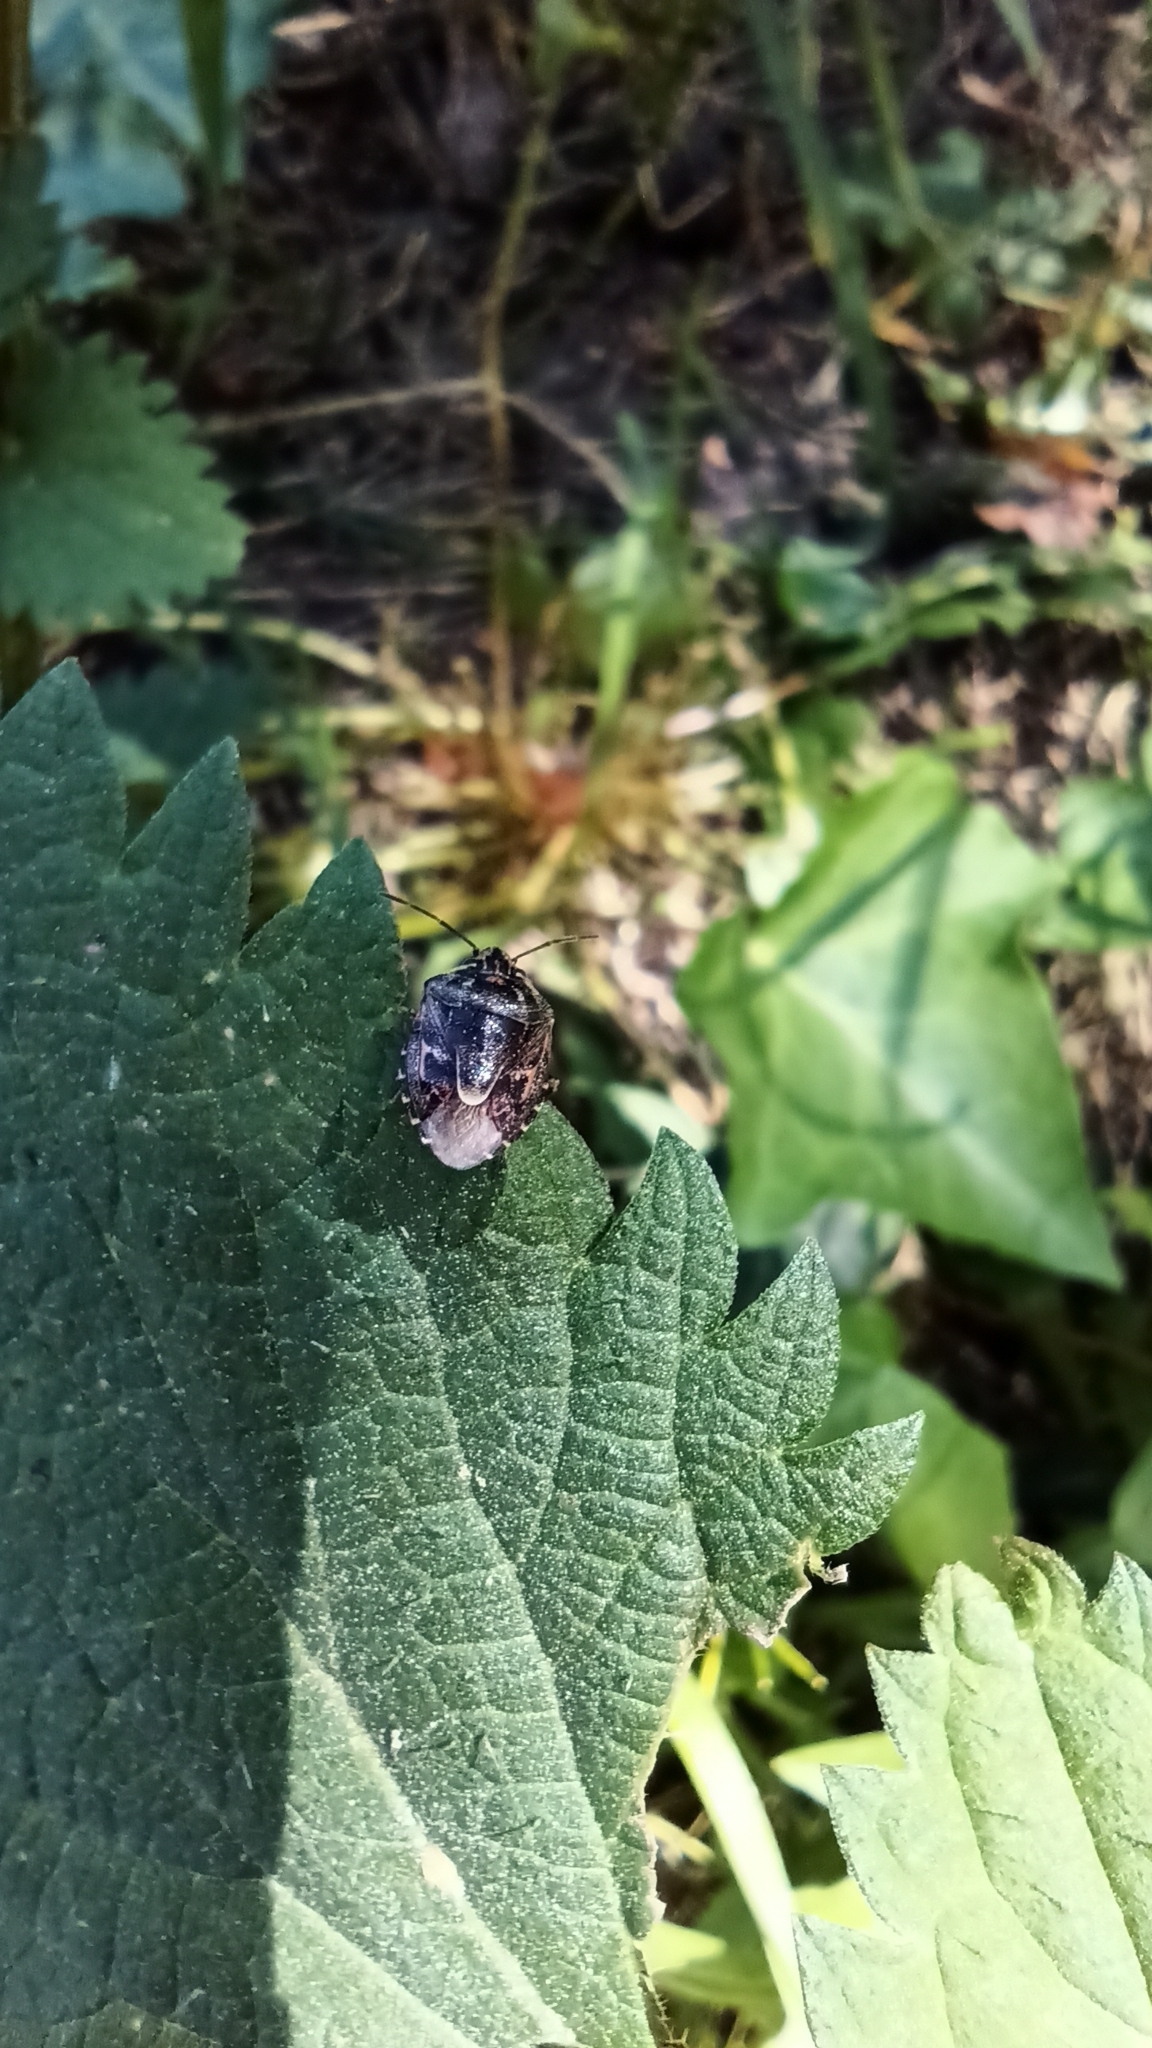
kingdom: Animalia
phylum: Arthropoda
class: Insecta
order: Hemiptera
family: Pentatomidae
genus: Holcogaster
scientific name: Holcogaster fibulata
